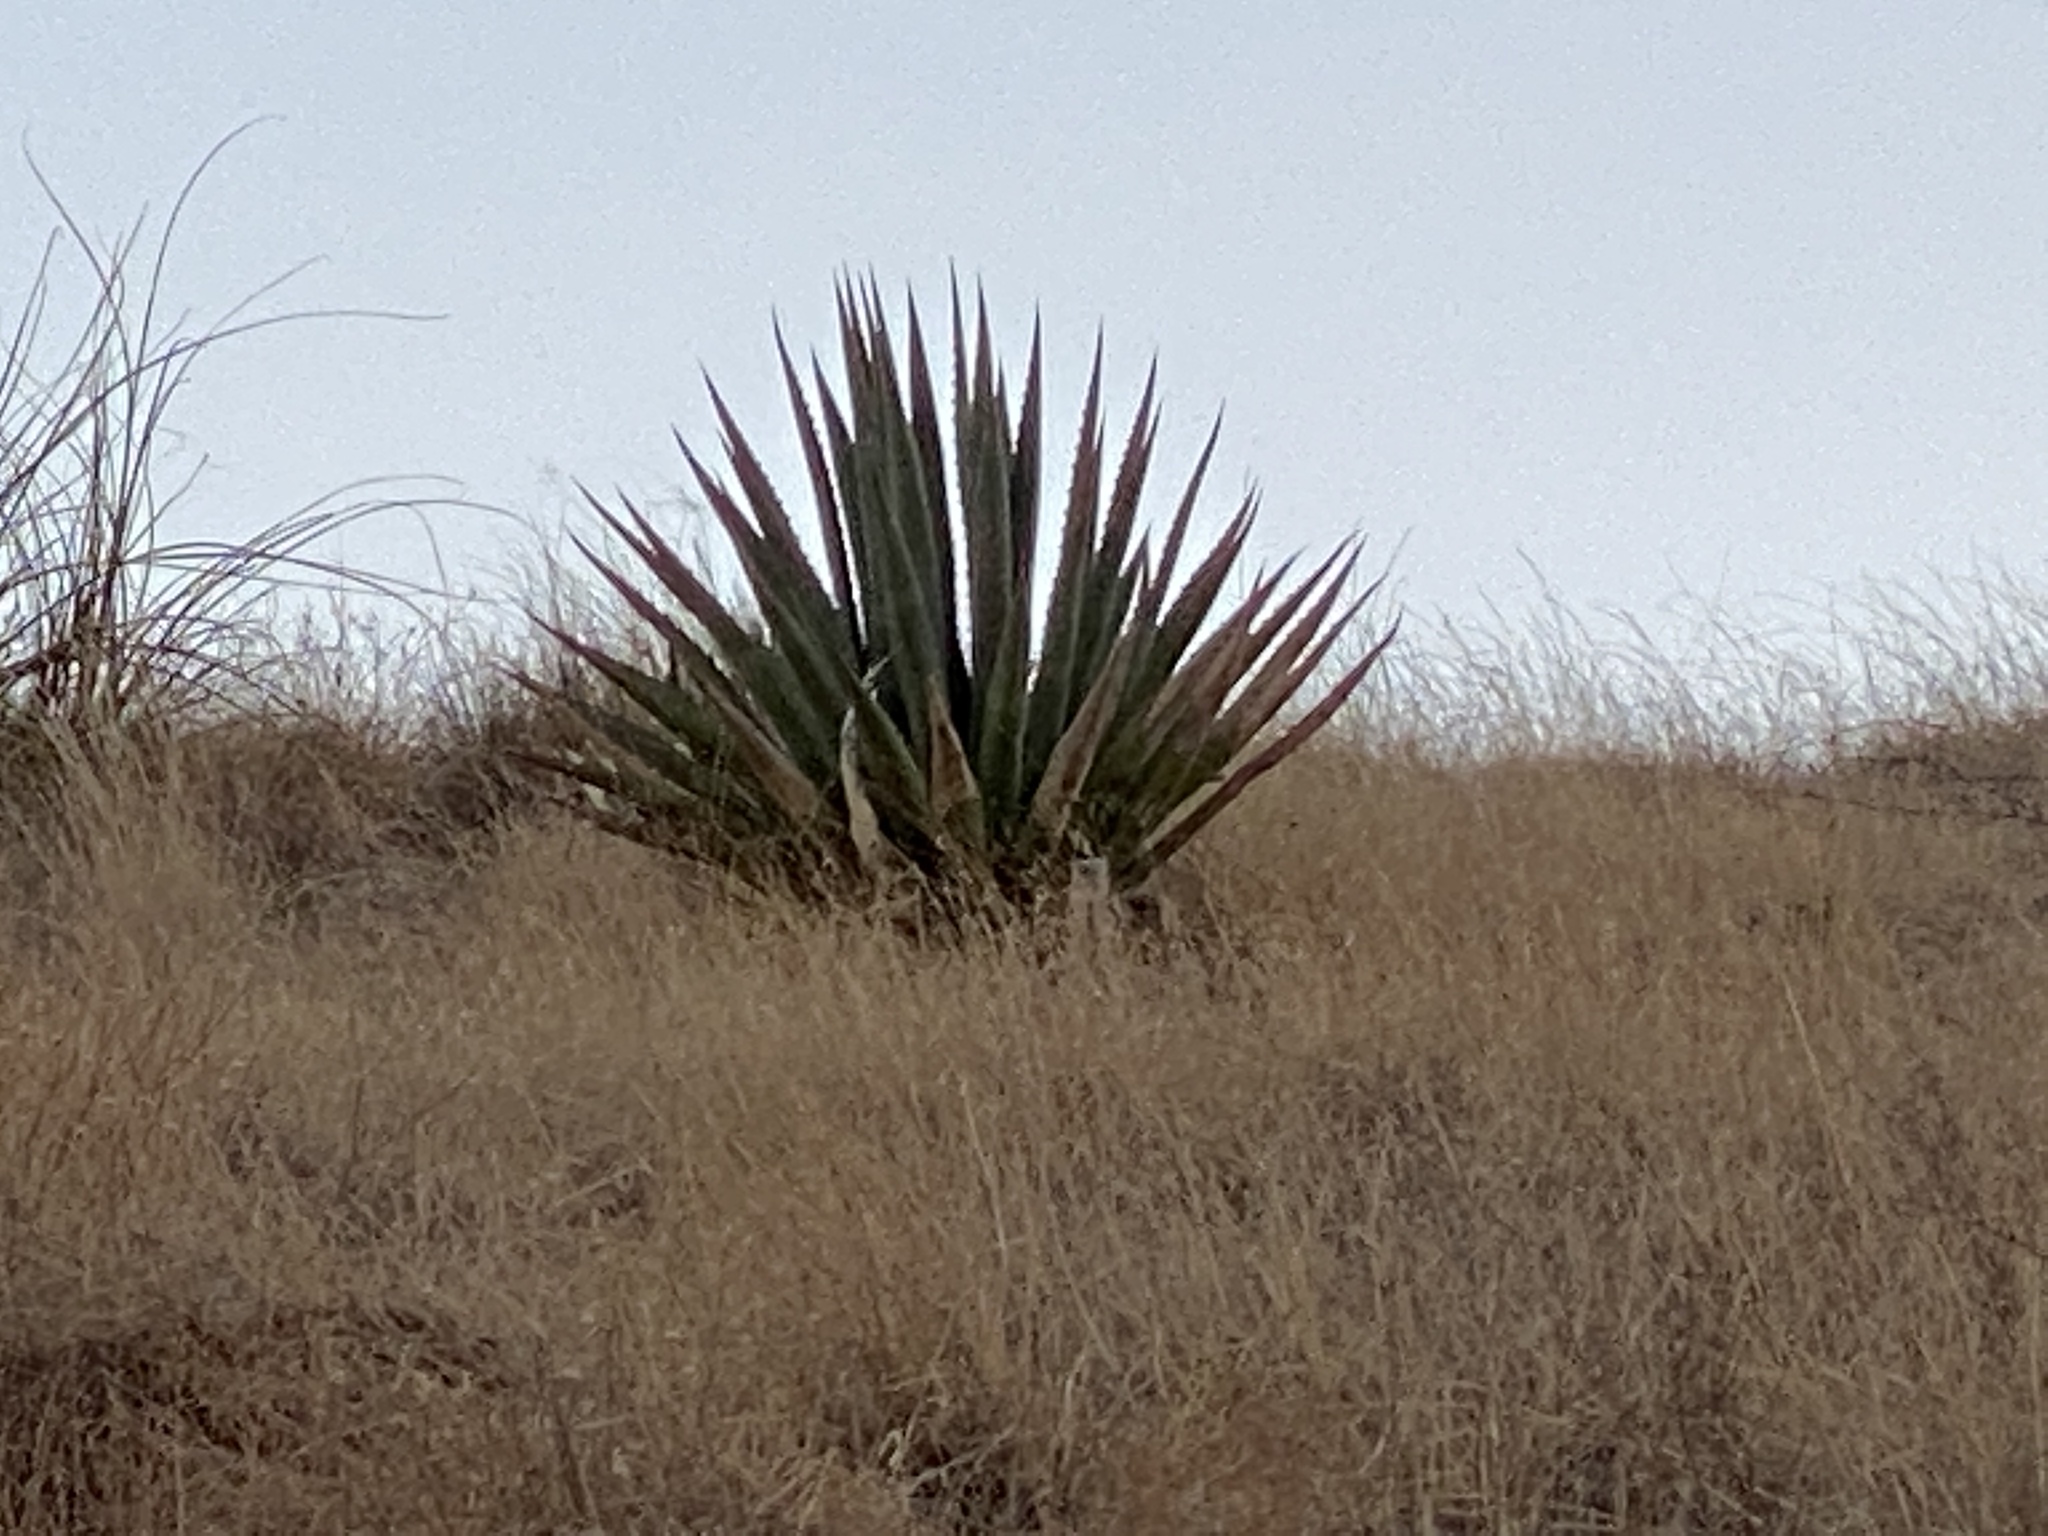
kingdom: Plantae
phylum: Tracheophyta
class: Liliopsida
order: Asparagales
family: Asparagaceae
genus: Agave
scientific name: Agave palmeri
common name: Palmer agave
